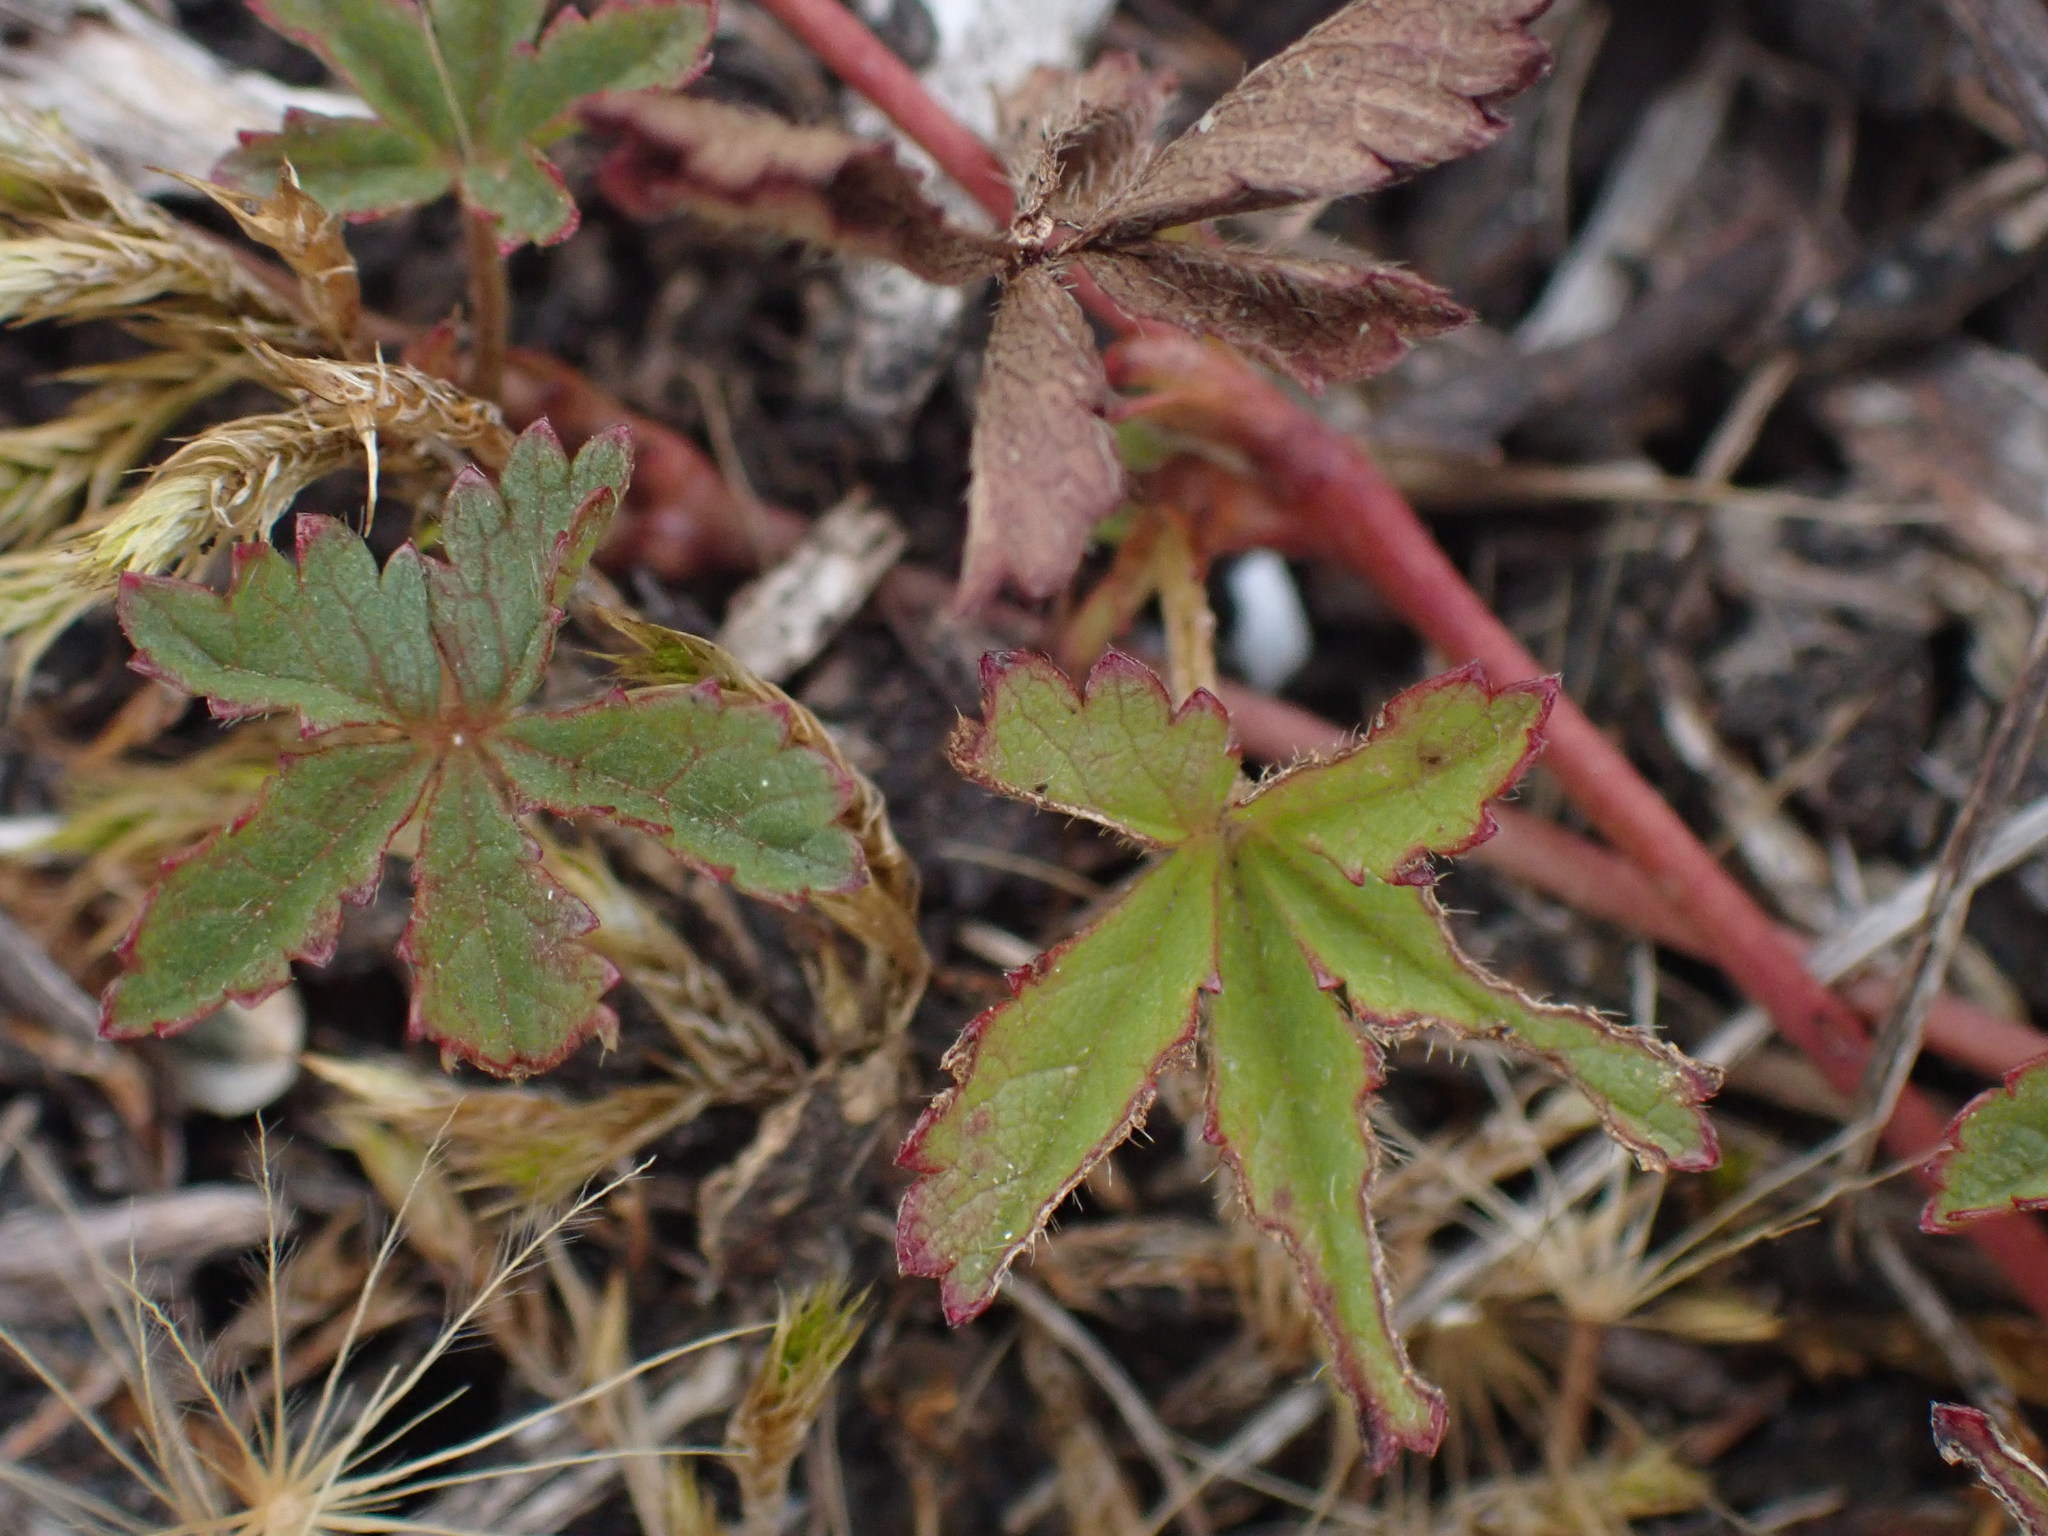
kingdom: Plantae
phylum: Tracheophyta
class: Magnoliopsida
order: Rosales
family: Rosaceae
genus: Potentilla
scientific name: Potentilla reptans
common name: Creeping cinquefoil
